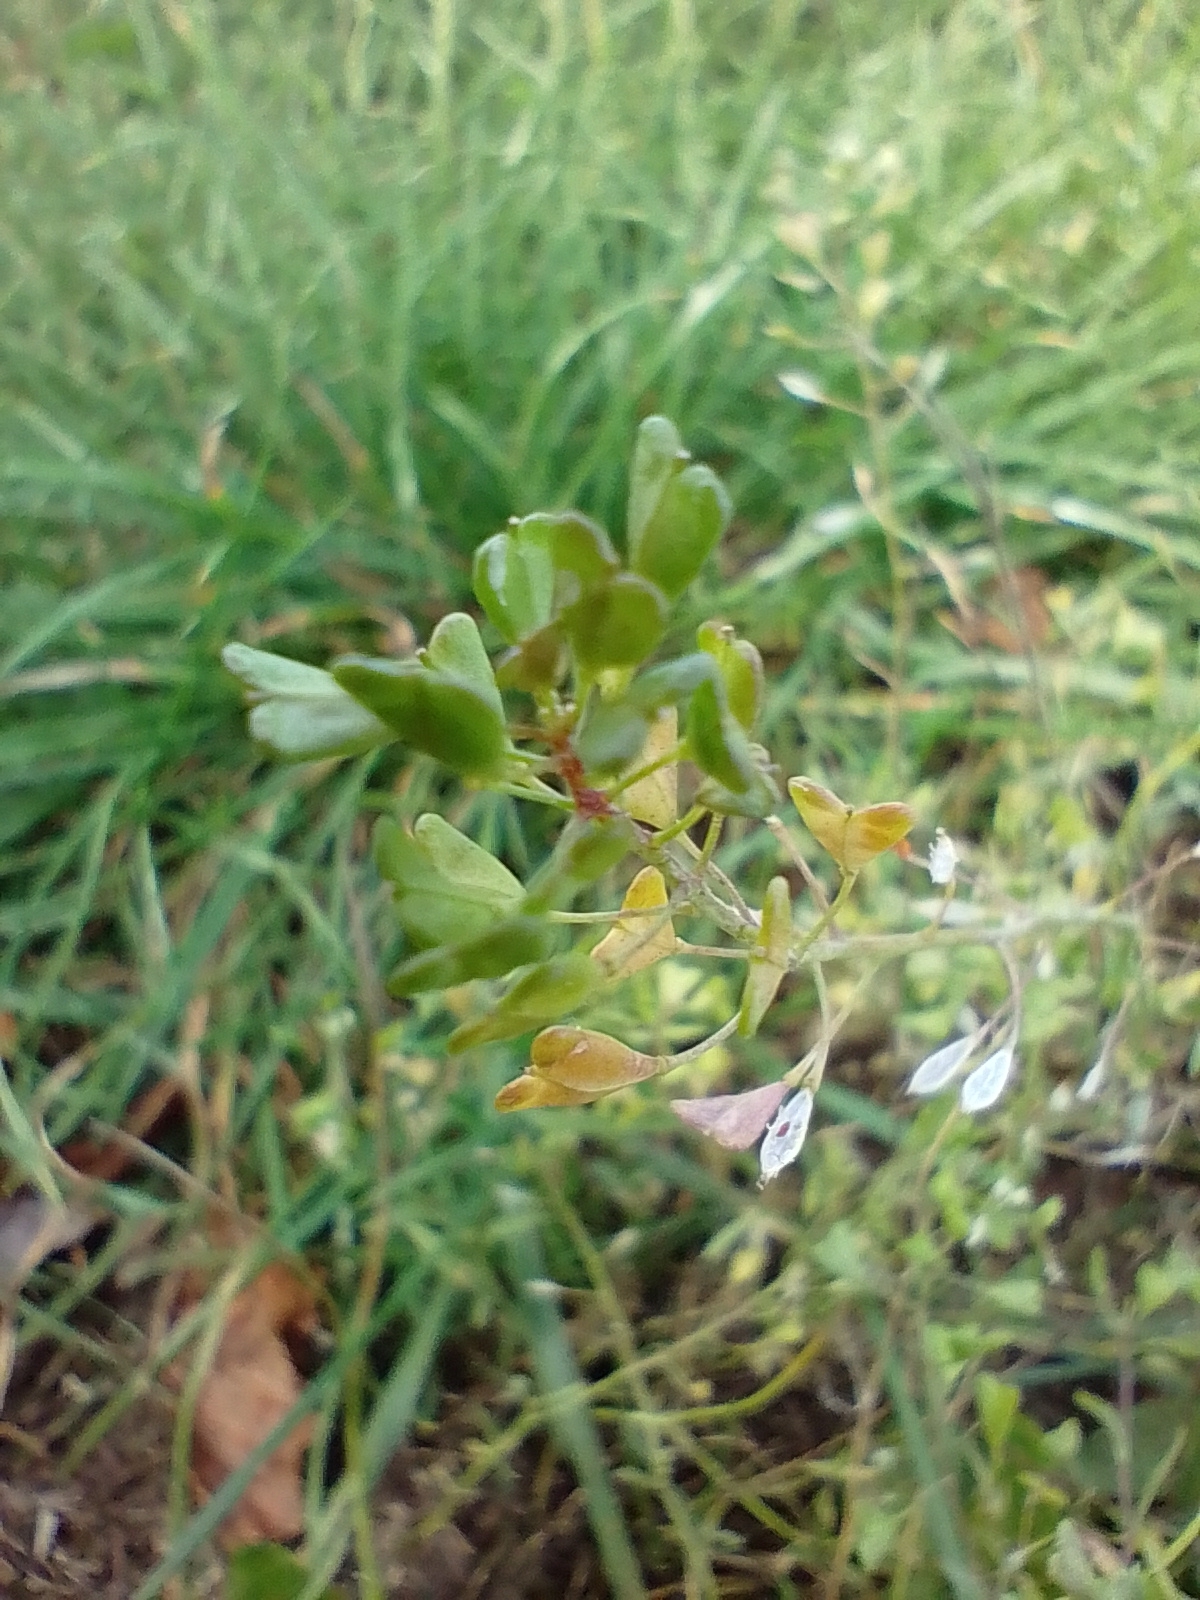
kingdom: Plantae
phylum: Tracheophyta
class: Magnoliopsida
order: Brassicales
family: Brassicaceae
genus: Capsella
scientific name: Capsella bursa-pastoris
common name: Shepherd's purse
